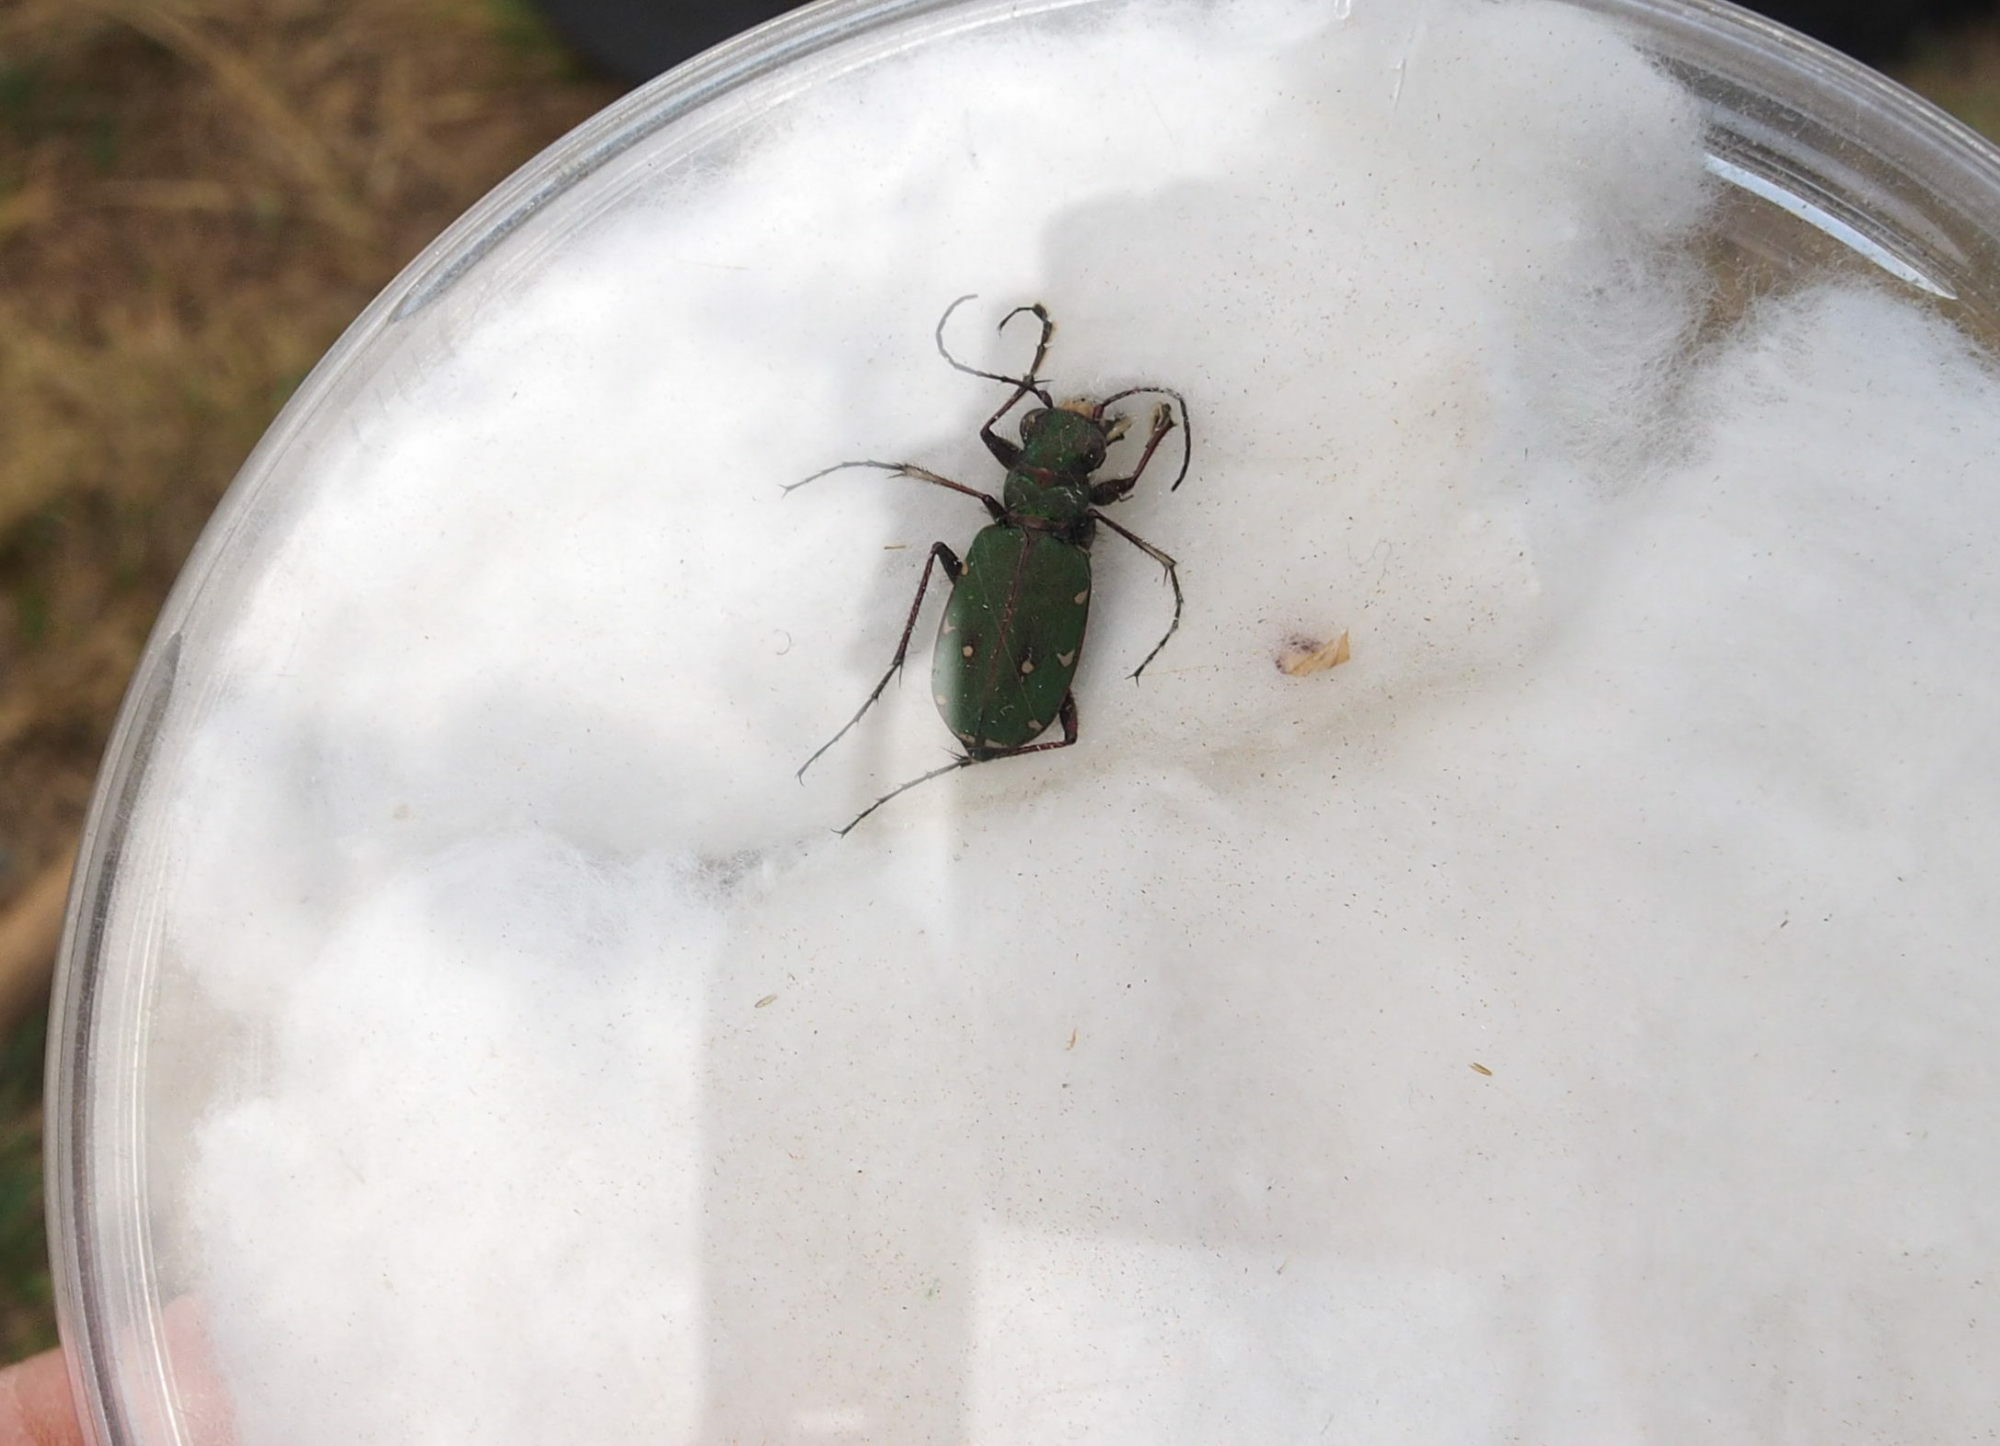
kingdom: Animalia
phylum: Arthropoda
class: Insecta
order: Coleoptera
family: Carabidae
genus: Cicindela
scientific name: Cicindela campestris
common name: Common tiger beetle
